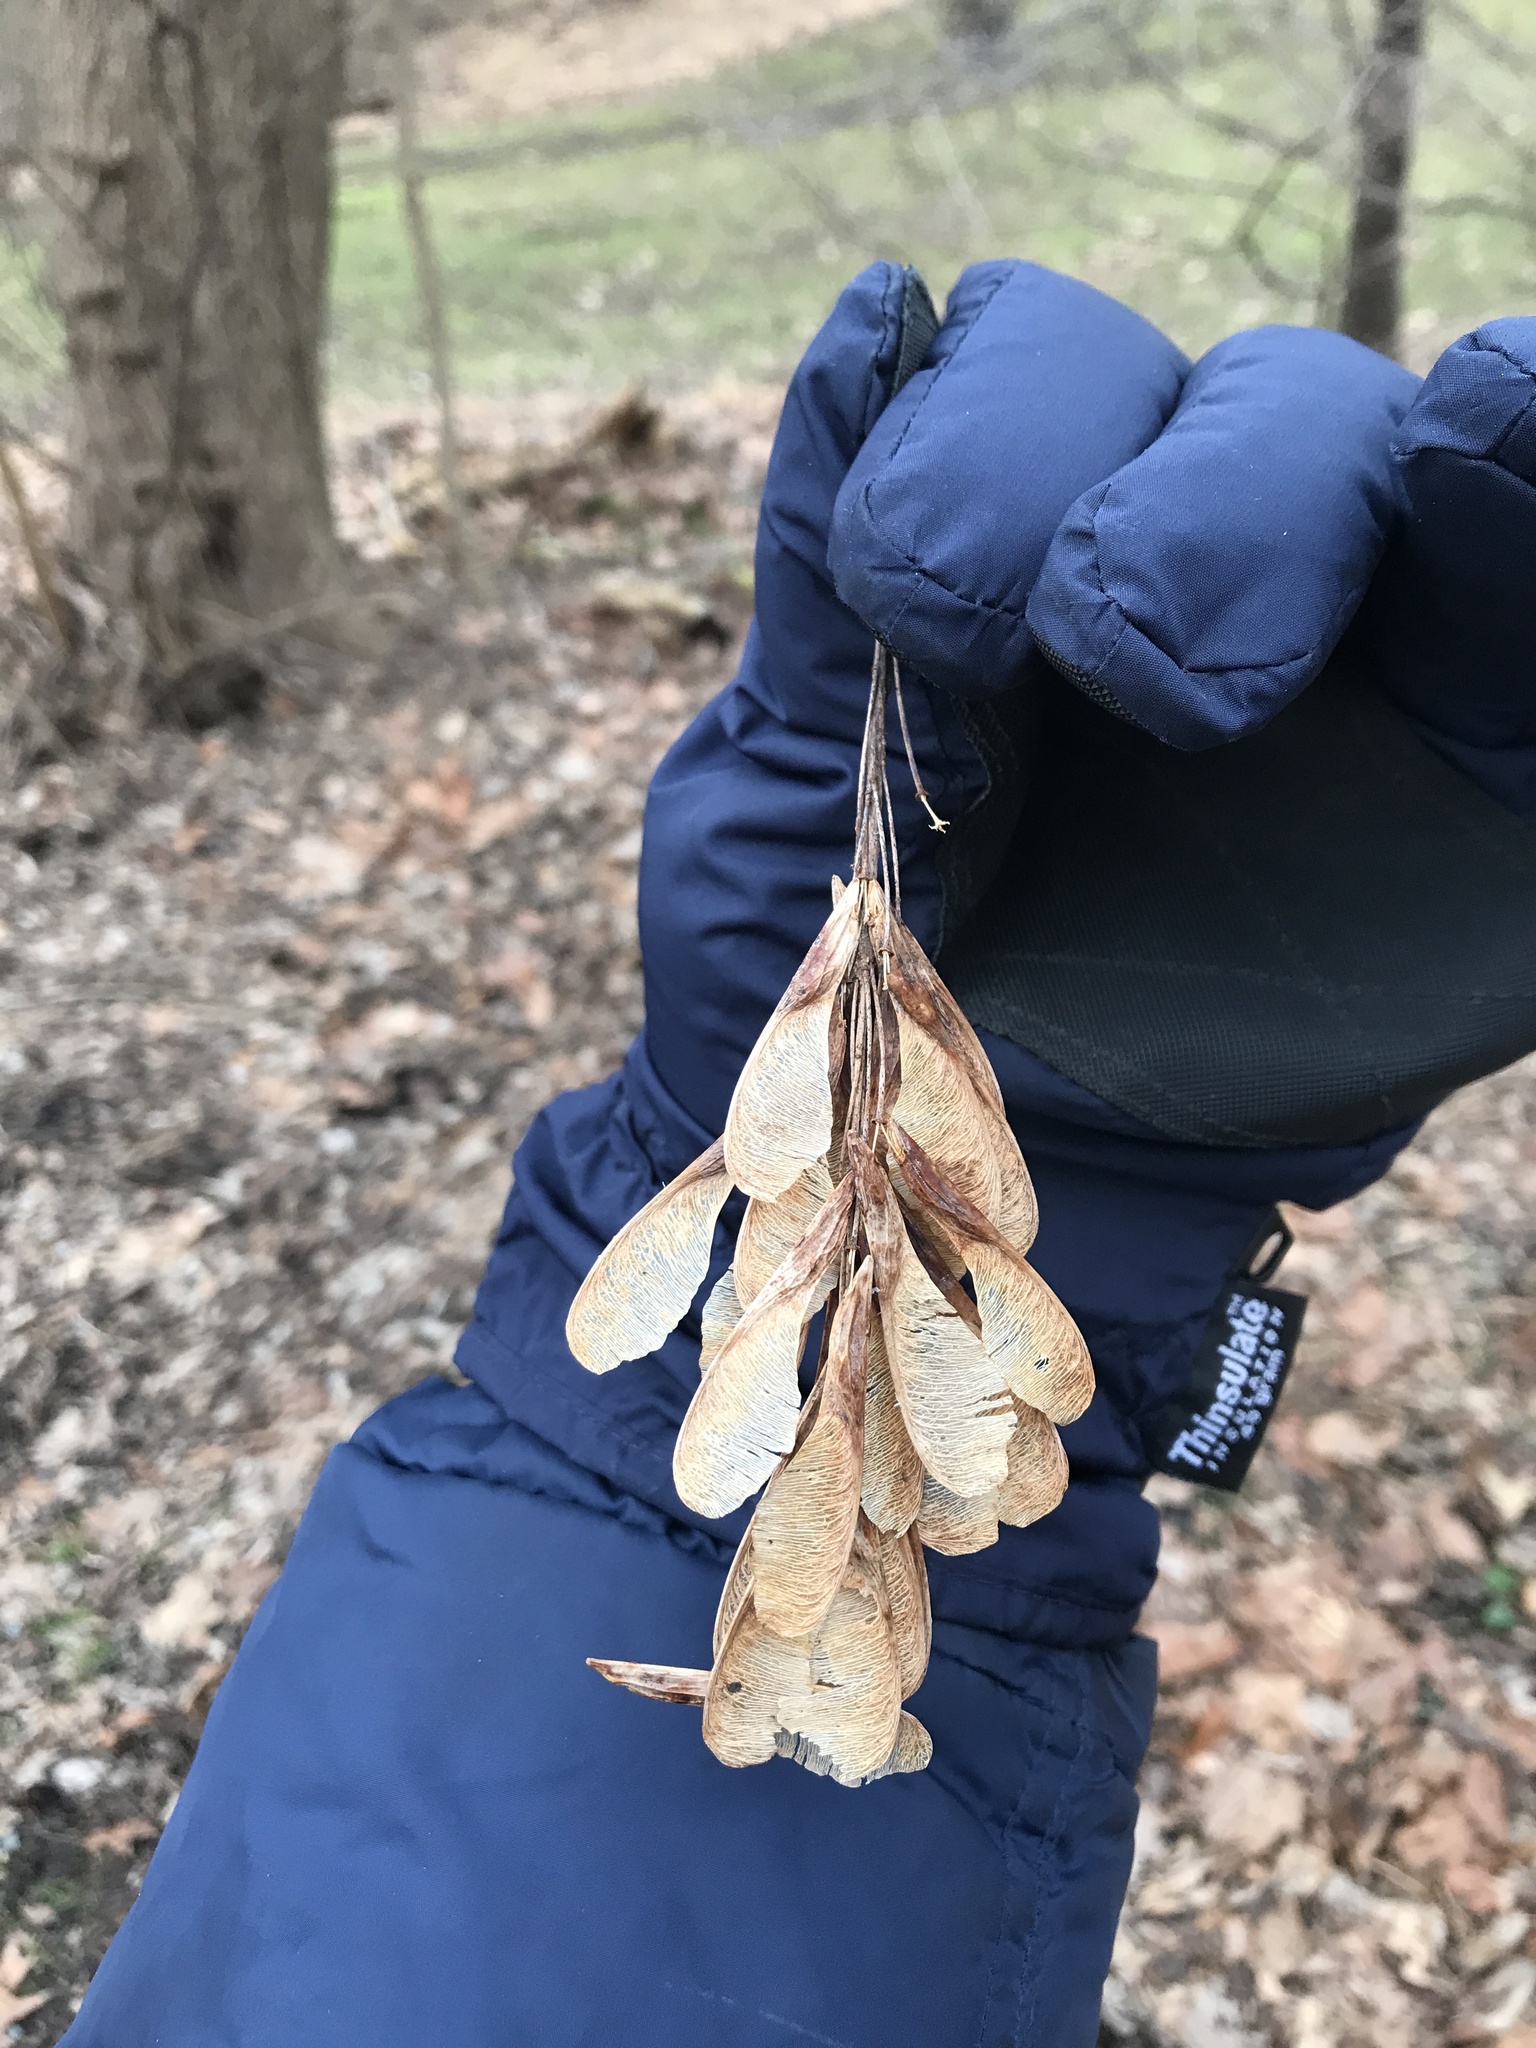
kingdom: Plantae
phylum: Tracheophyta
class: Magnoliopsida
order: Sapindales
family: Sapindaceae
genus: Acer
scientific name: Acer negundo
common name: Ashleaf maple
